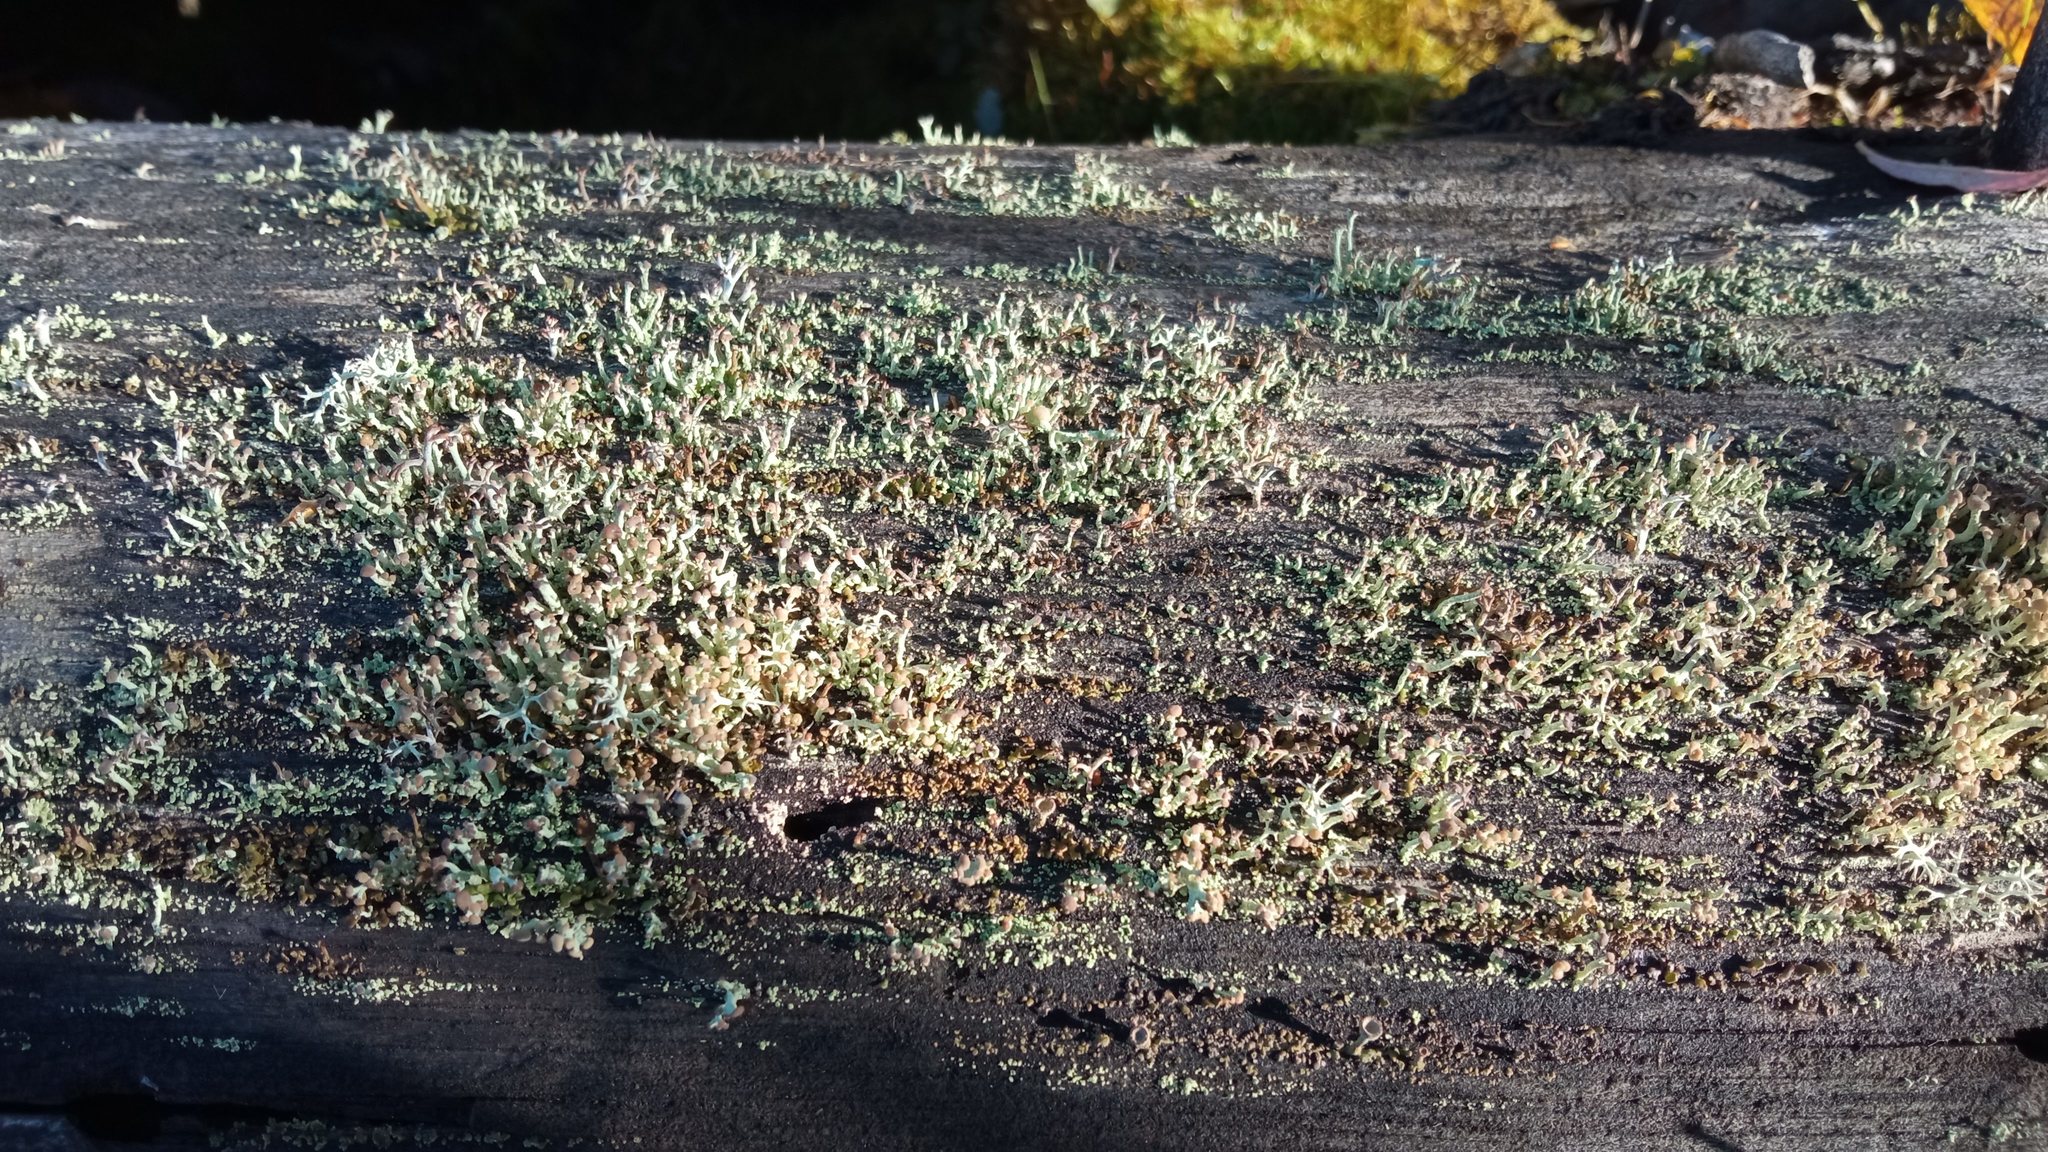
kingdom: Fungi
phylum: Ascomycota
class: Lecanoromycetes
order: Lecanorales
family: Cladoniaceae
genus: Cladonia
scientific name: Cladonia botrytes
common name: Stump lichen
